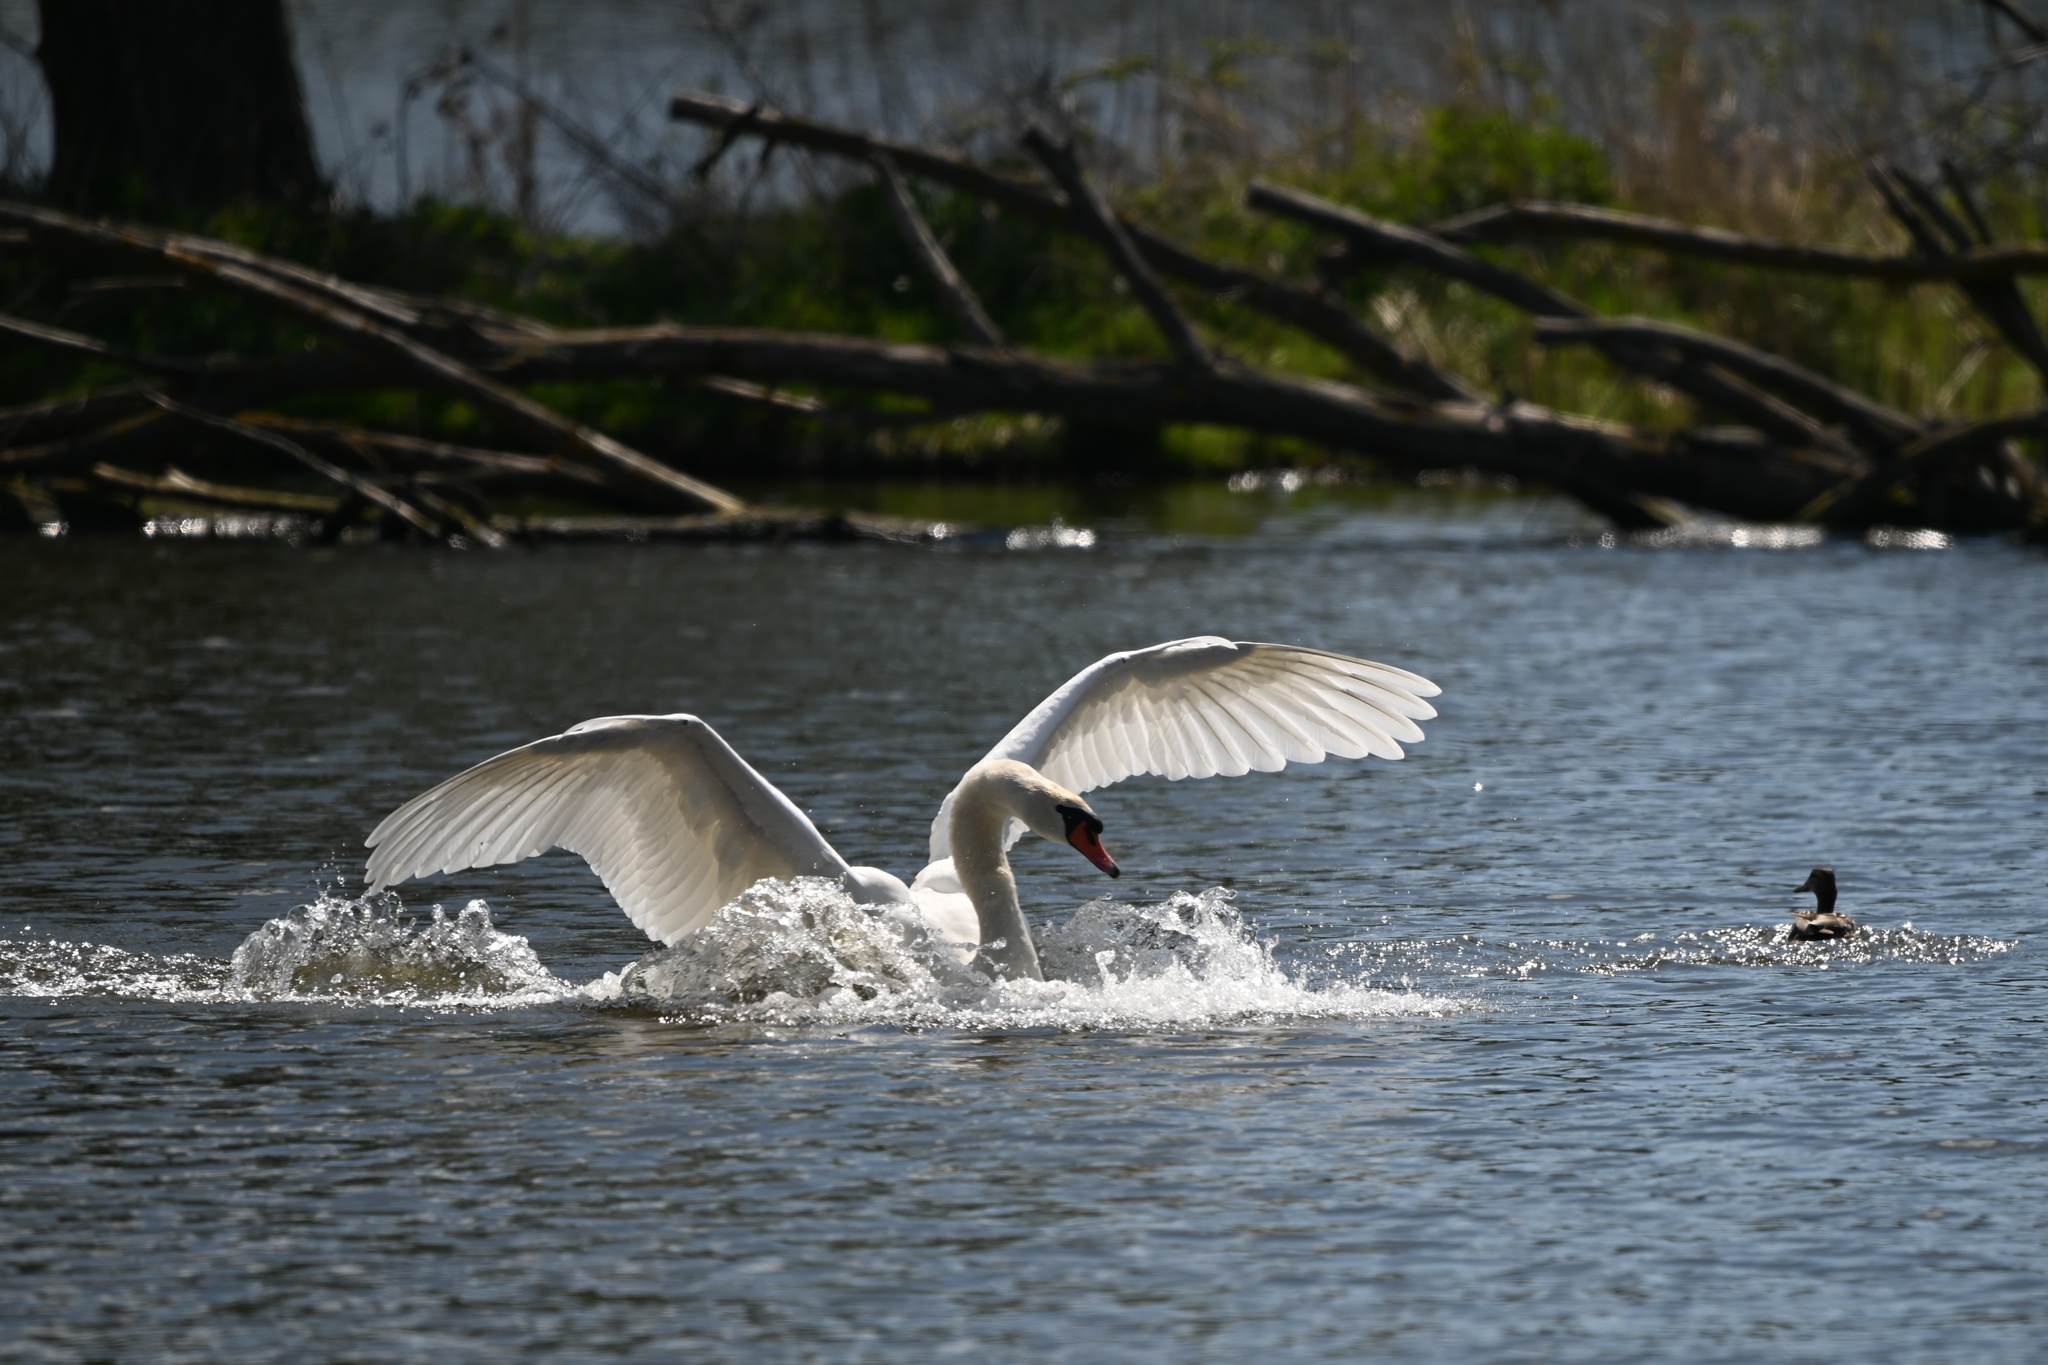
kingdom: Animalia
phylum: Chordata
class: Aves
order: Anseriformes
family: Anatidae
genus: Cygnus
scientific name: Cygnus olor
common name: Mute swan
